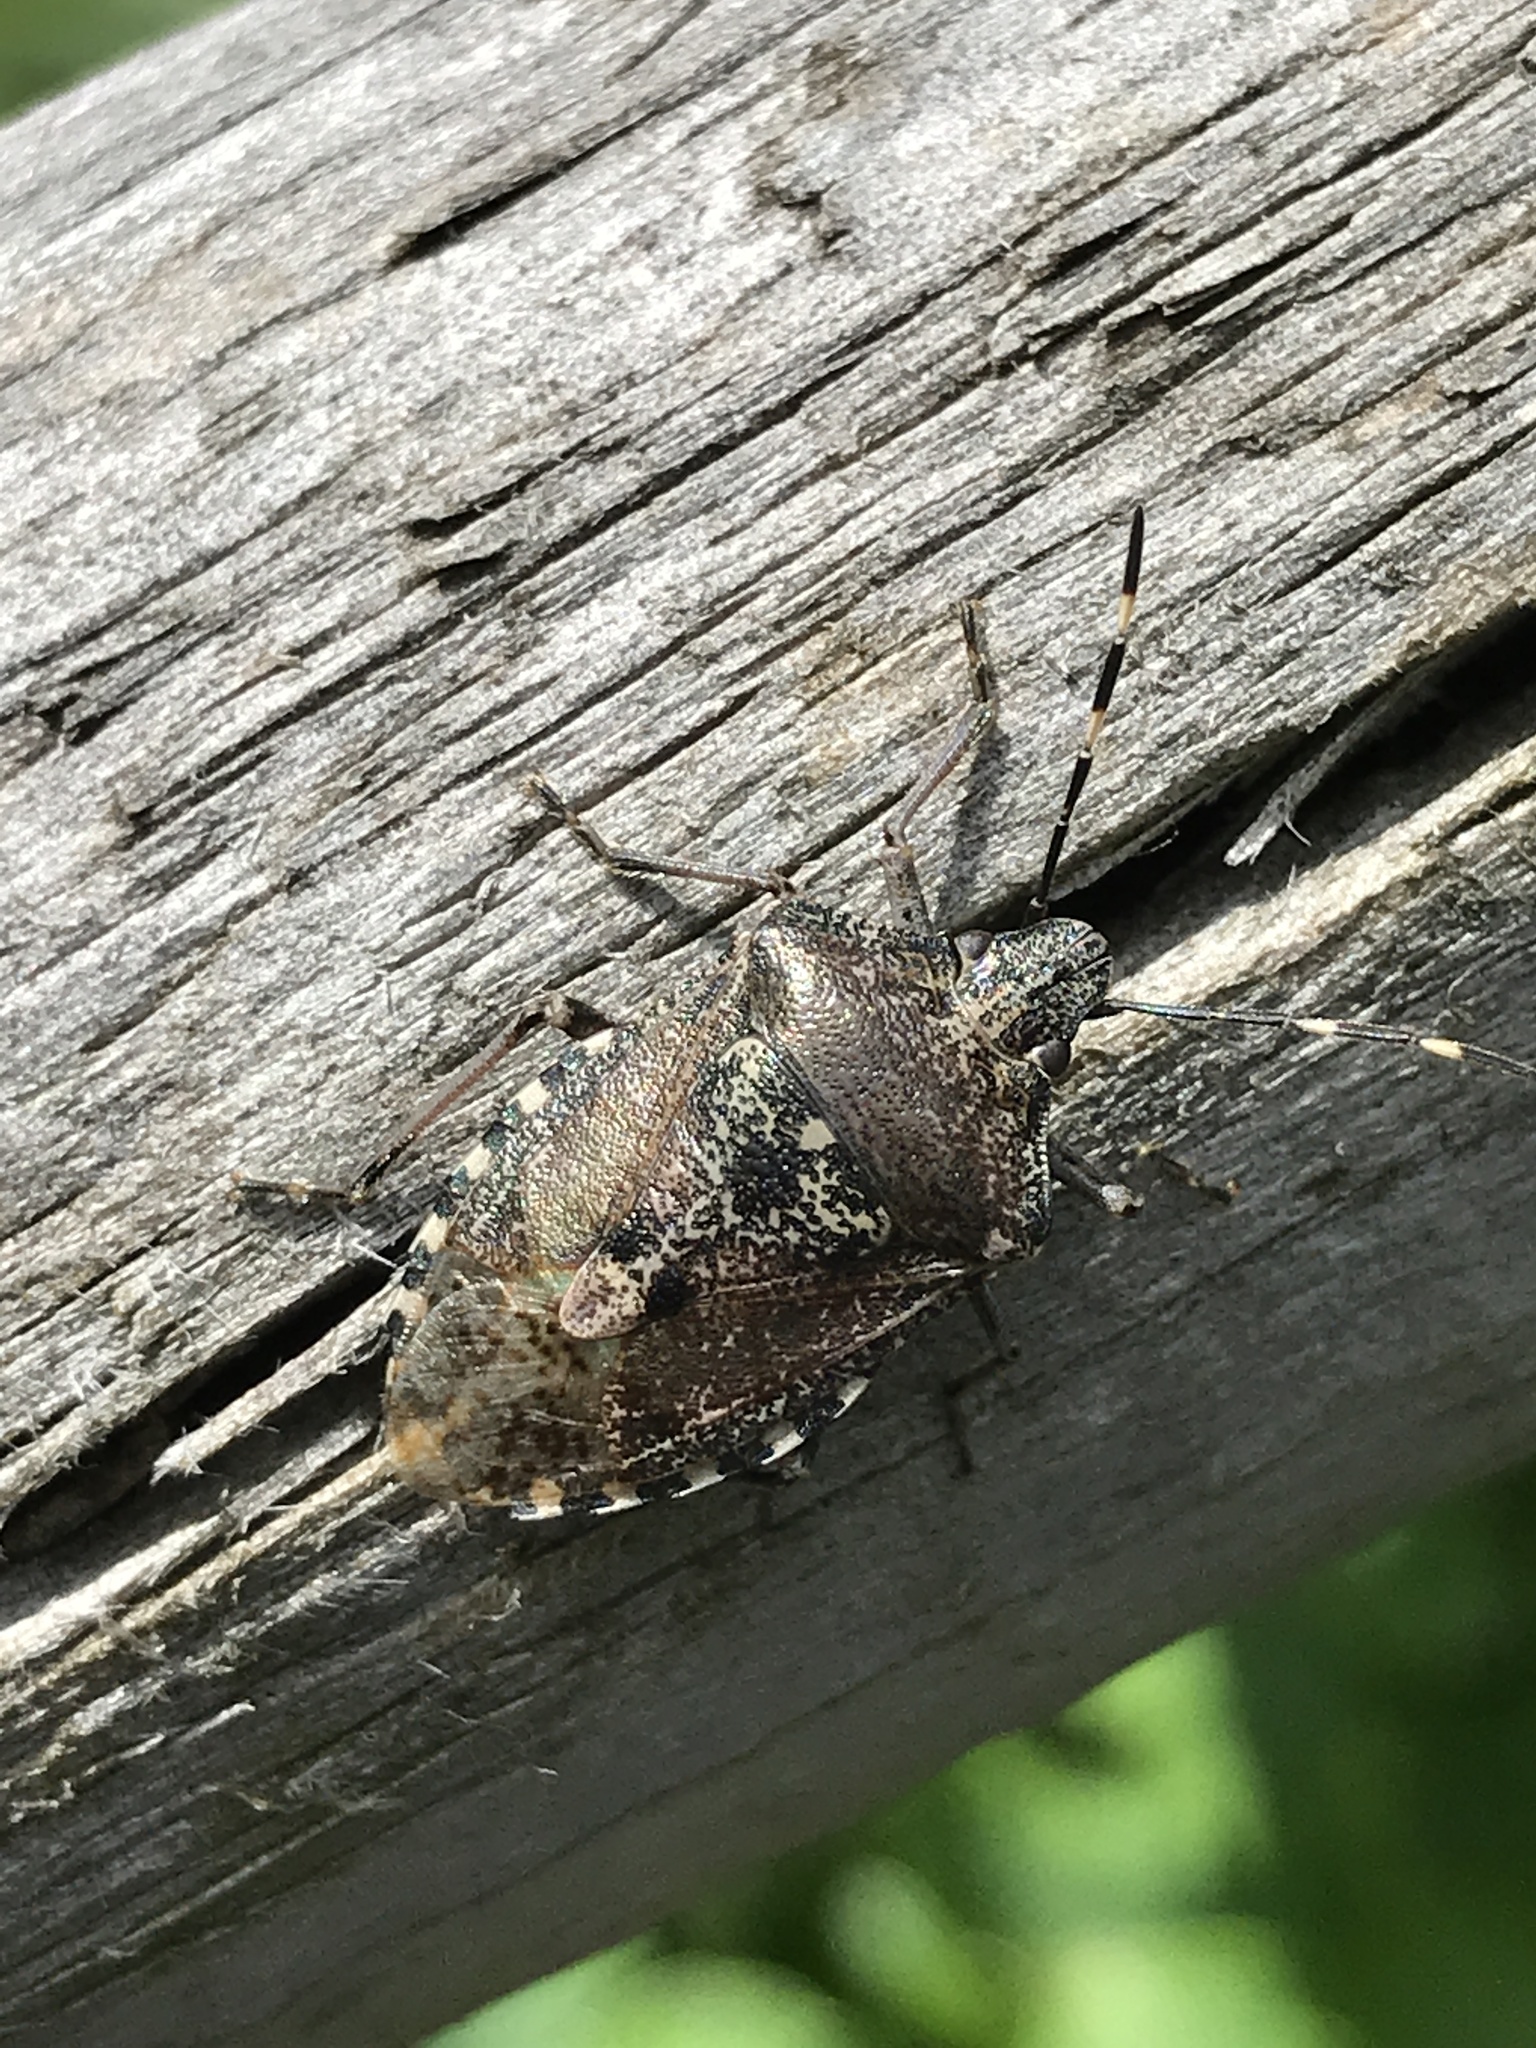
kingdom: Animalia
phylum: Arthropoda
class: Insecta
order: Hemiptera
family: Pentatomidae
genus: Rhaphigaster
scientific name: Rhaphigaster nebulosa
